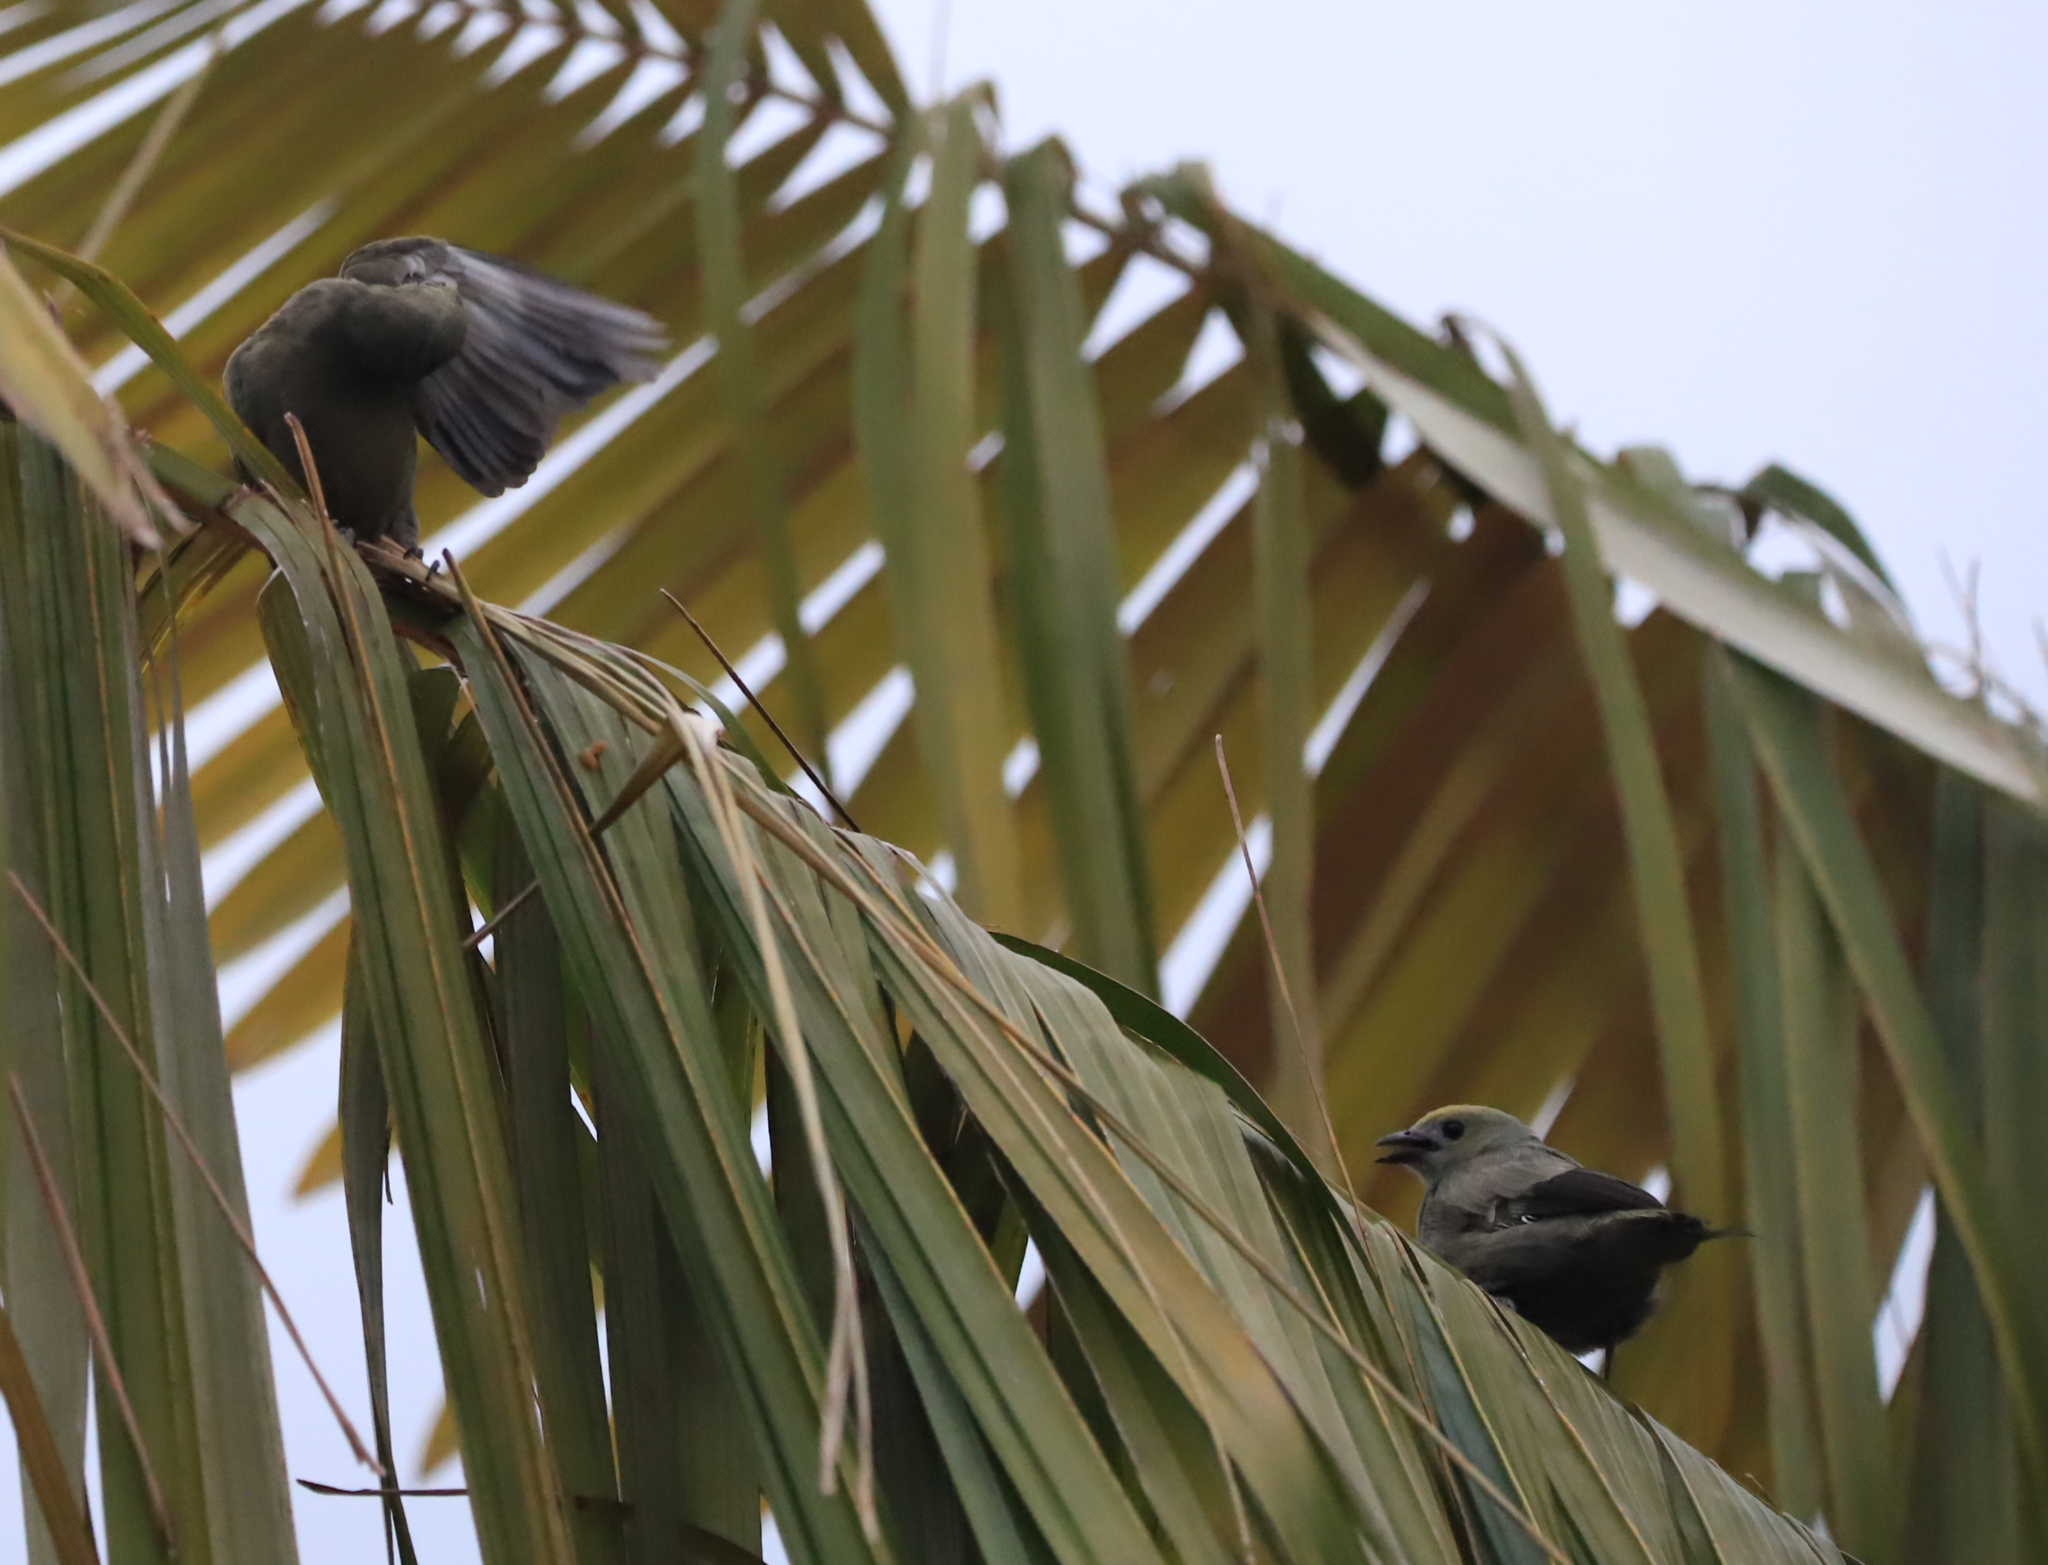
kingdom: Animalia
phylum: Chordata
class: Aves
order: Passeriformes
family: Thraupidae
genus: Thraupis
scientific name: Thraupis palmarum
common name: Palm tanager
